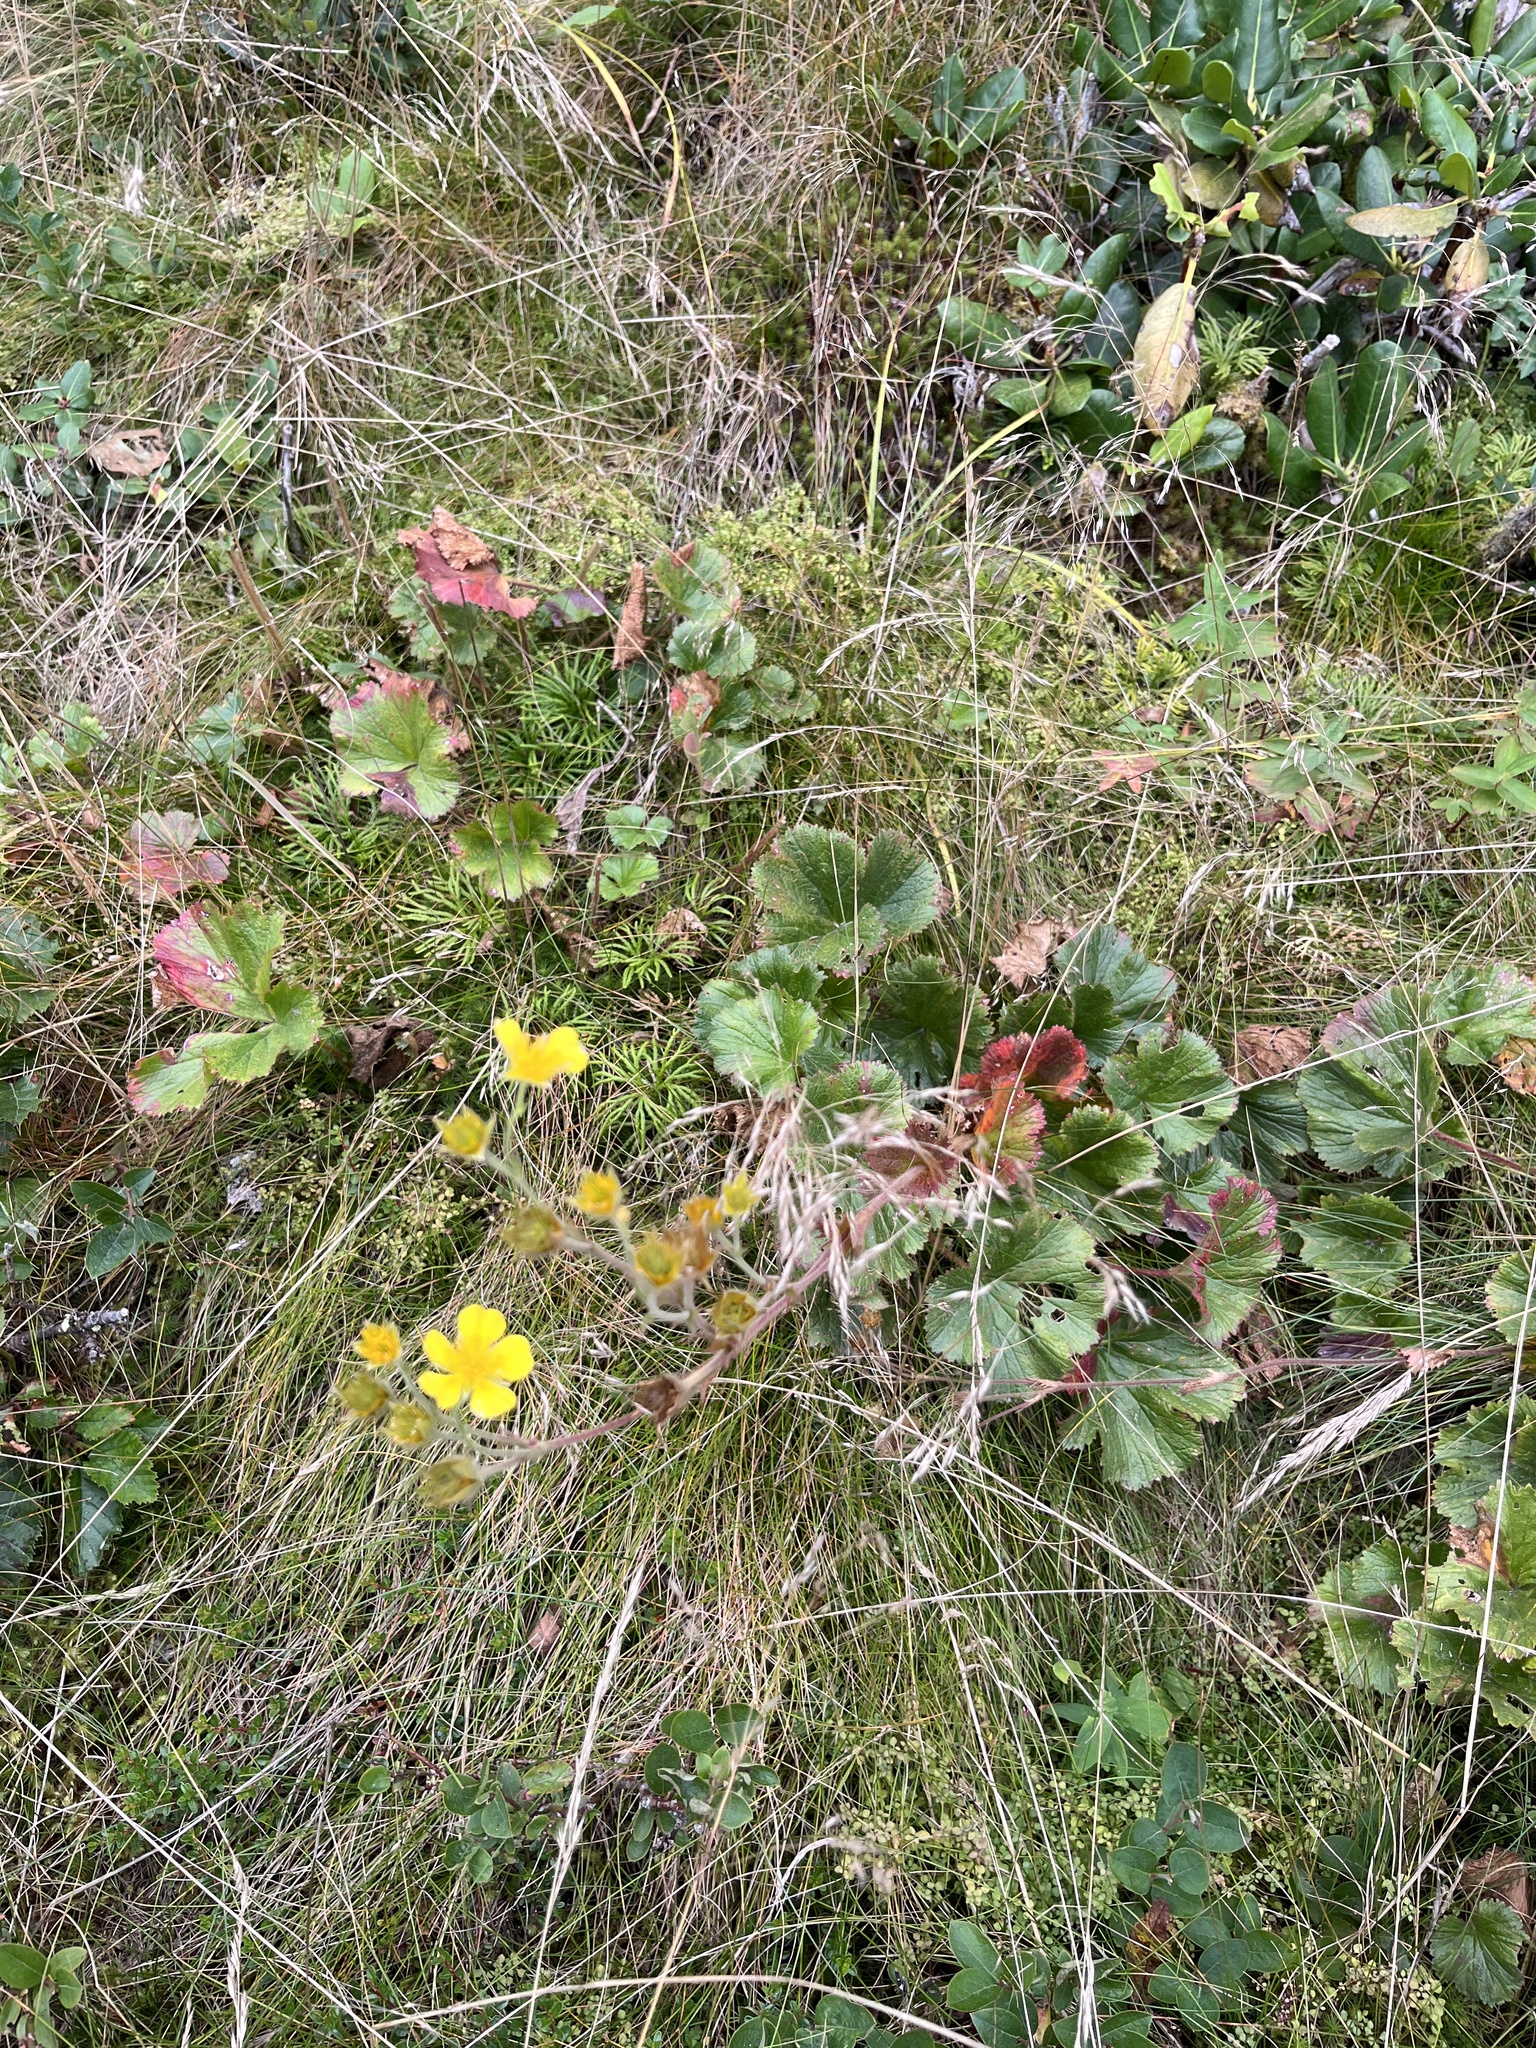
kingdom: Plantae
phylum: Tracheophyta
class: Magnoliopsida
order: Rosales
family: Rosaceae
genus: Geum
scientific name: Geum radiatum
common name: Spreaded avens
